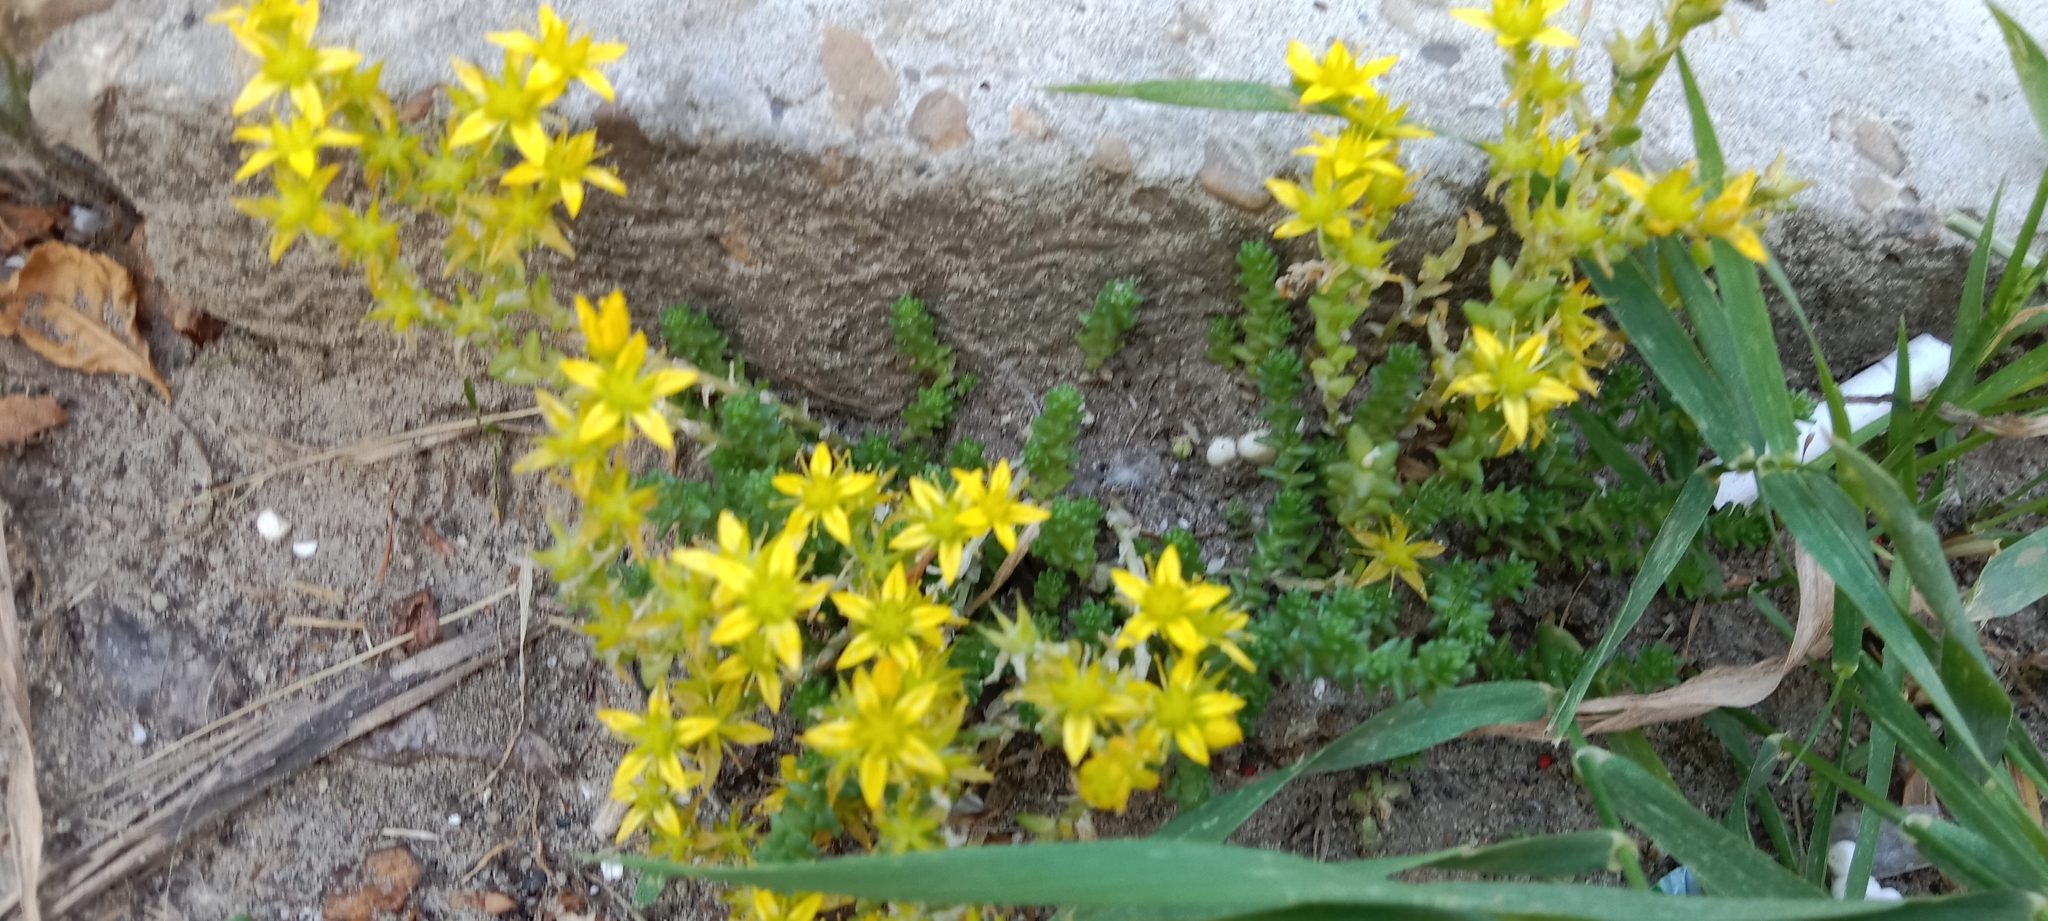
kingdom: Plantae
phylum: Tracheophyta
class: Magnoliopsida
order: Saxifragales
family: Crassulaceae
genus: Sedum
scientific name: Sedum acre
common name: Biting stonecrop
